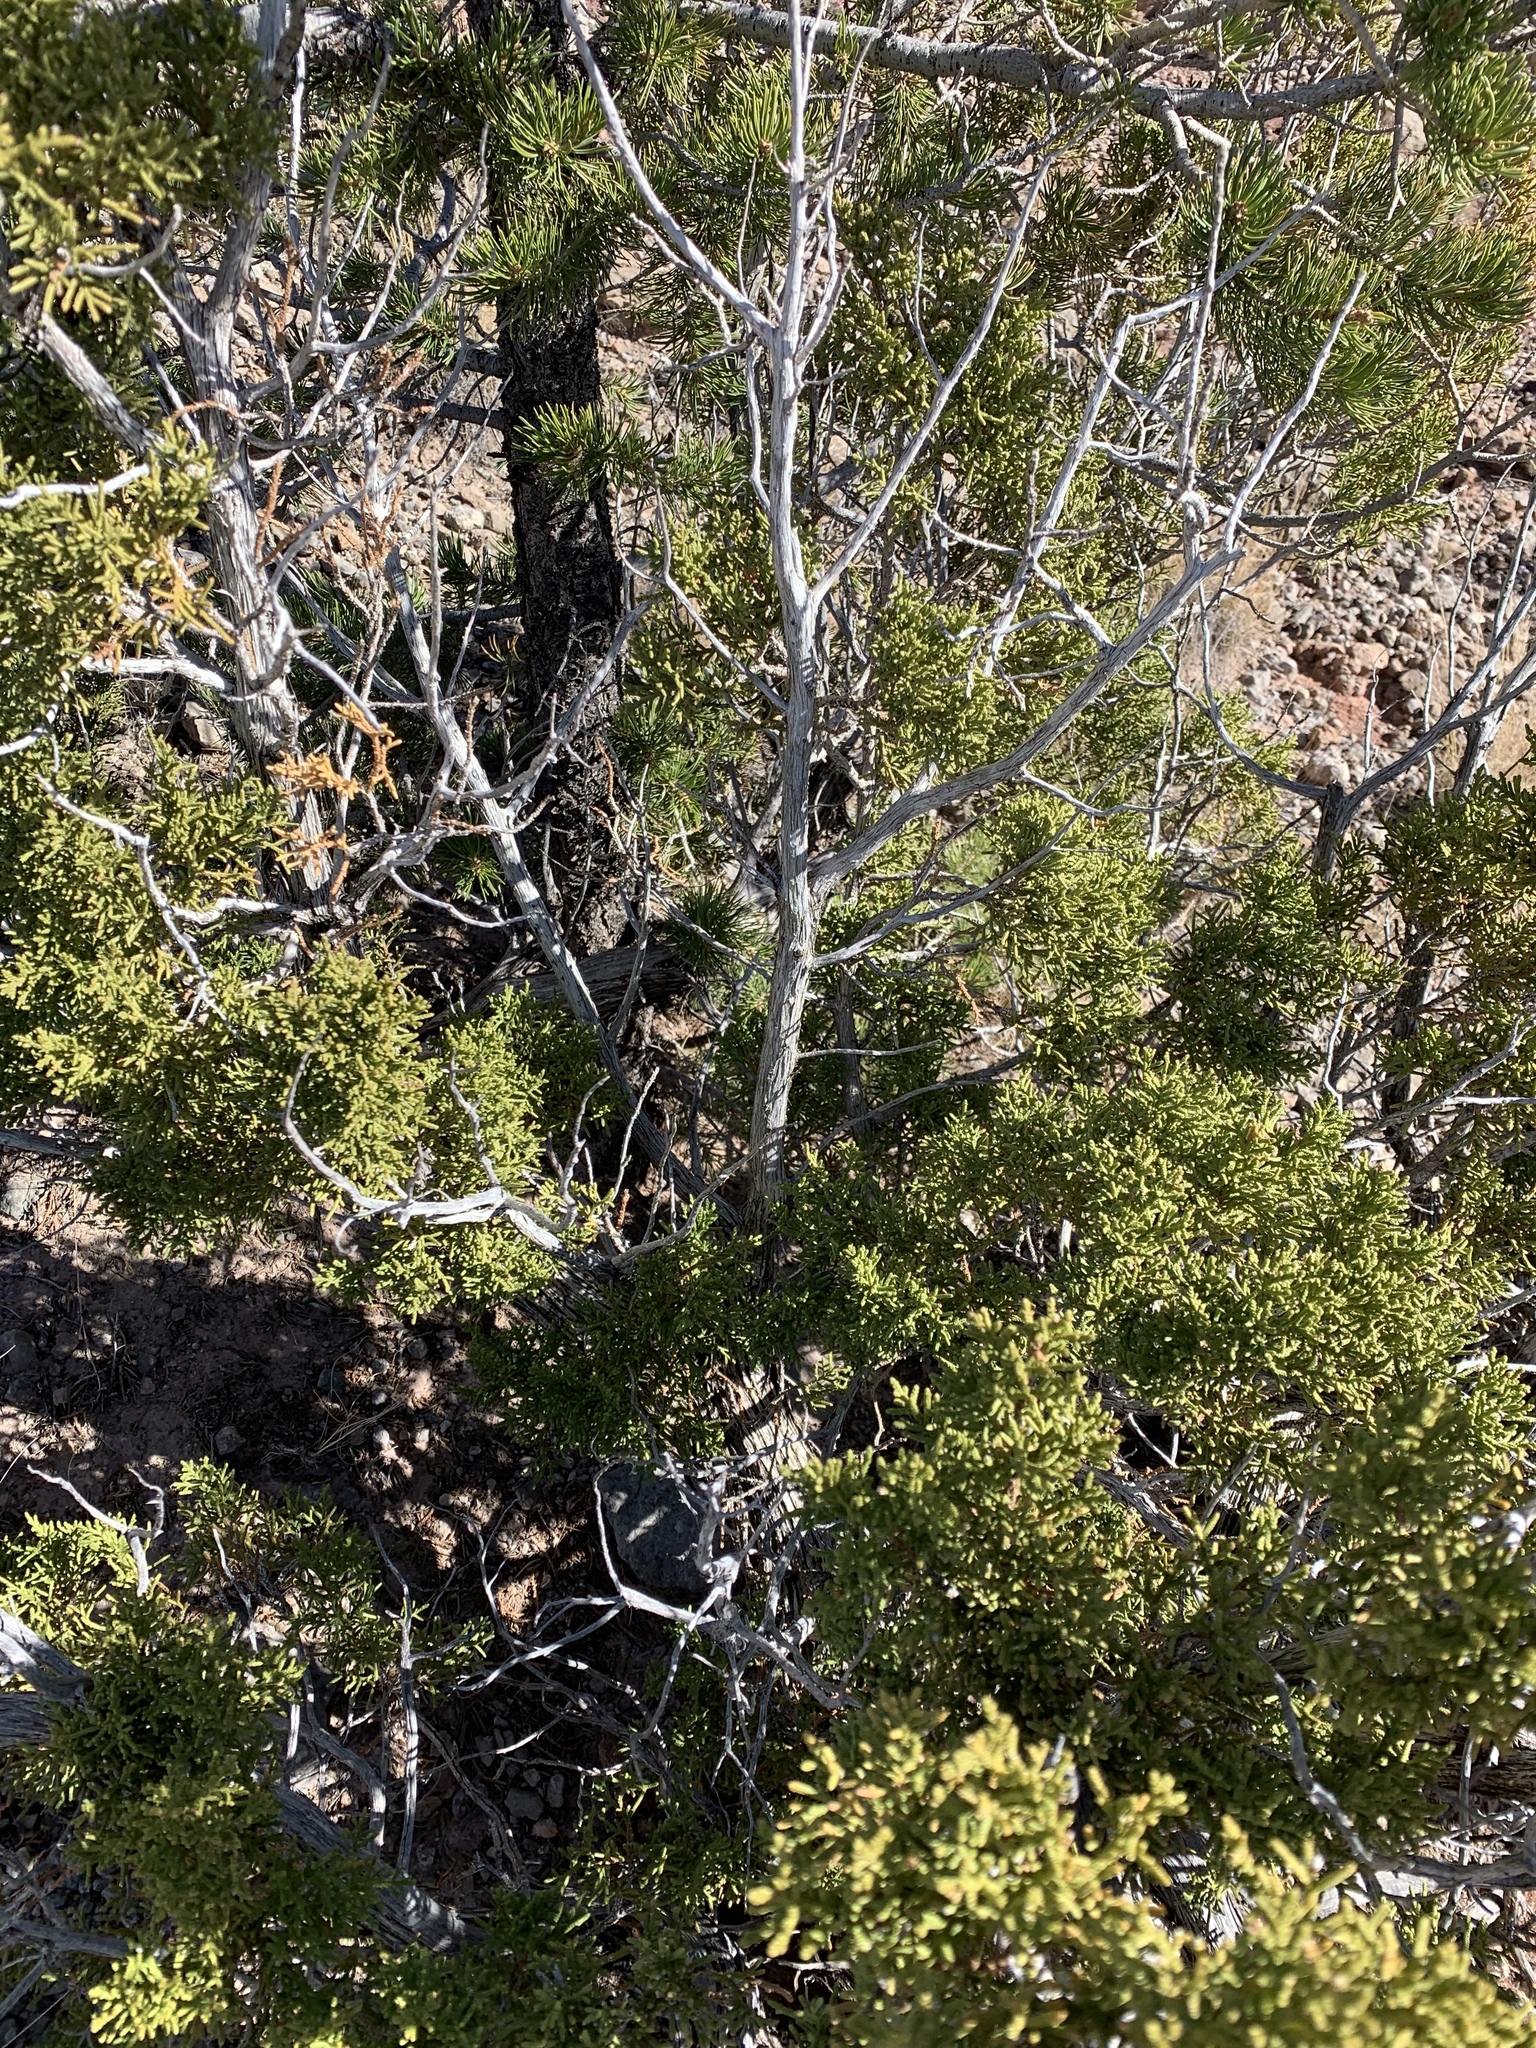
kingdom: Plantae
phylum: Tracheophyta
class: Pinopsida
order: Pinales
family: Cupressaceae
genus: Juniperus
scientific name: Juniperus monosperma
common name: One-seed juniper
